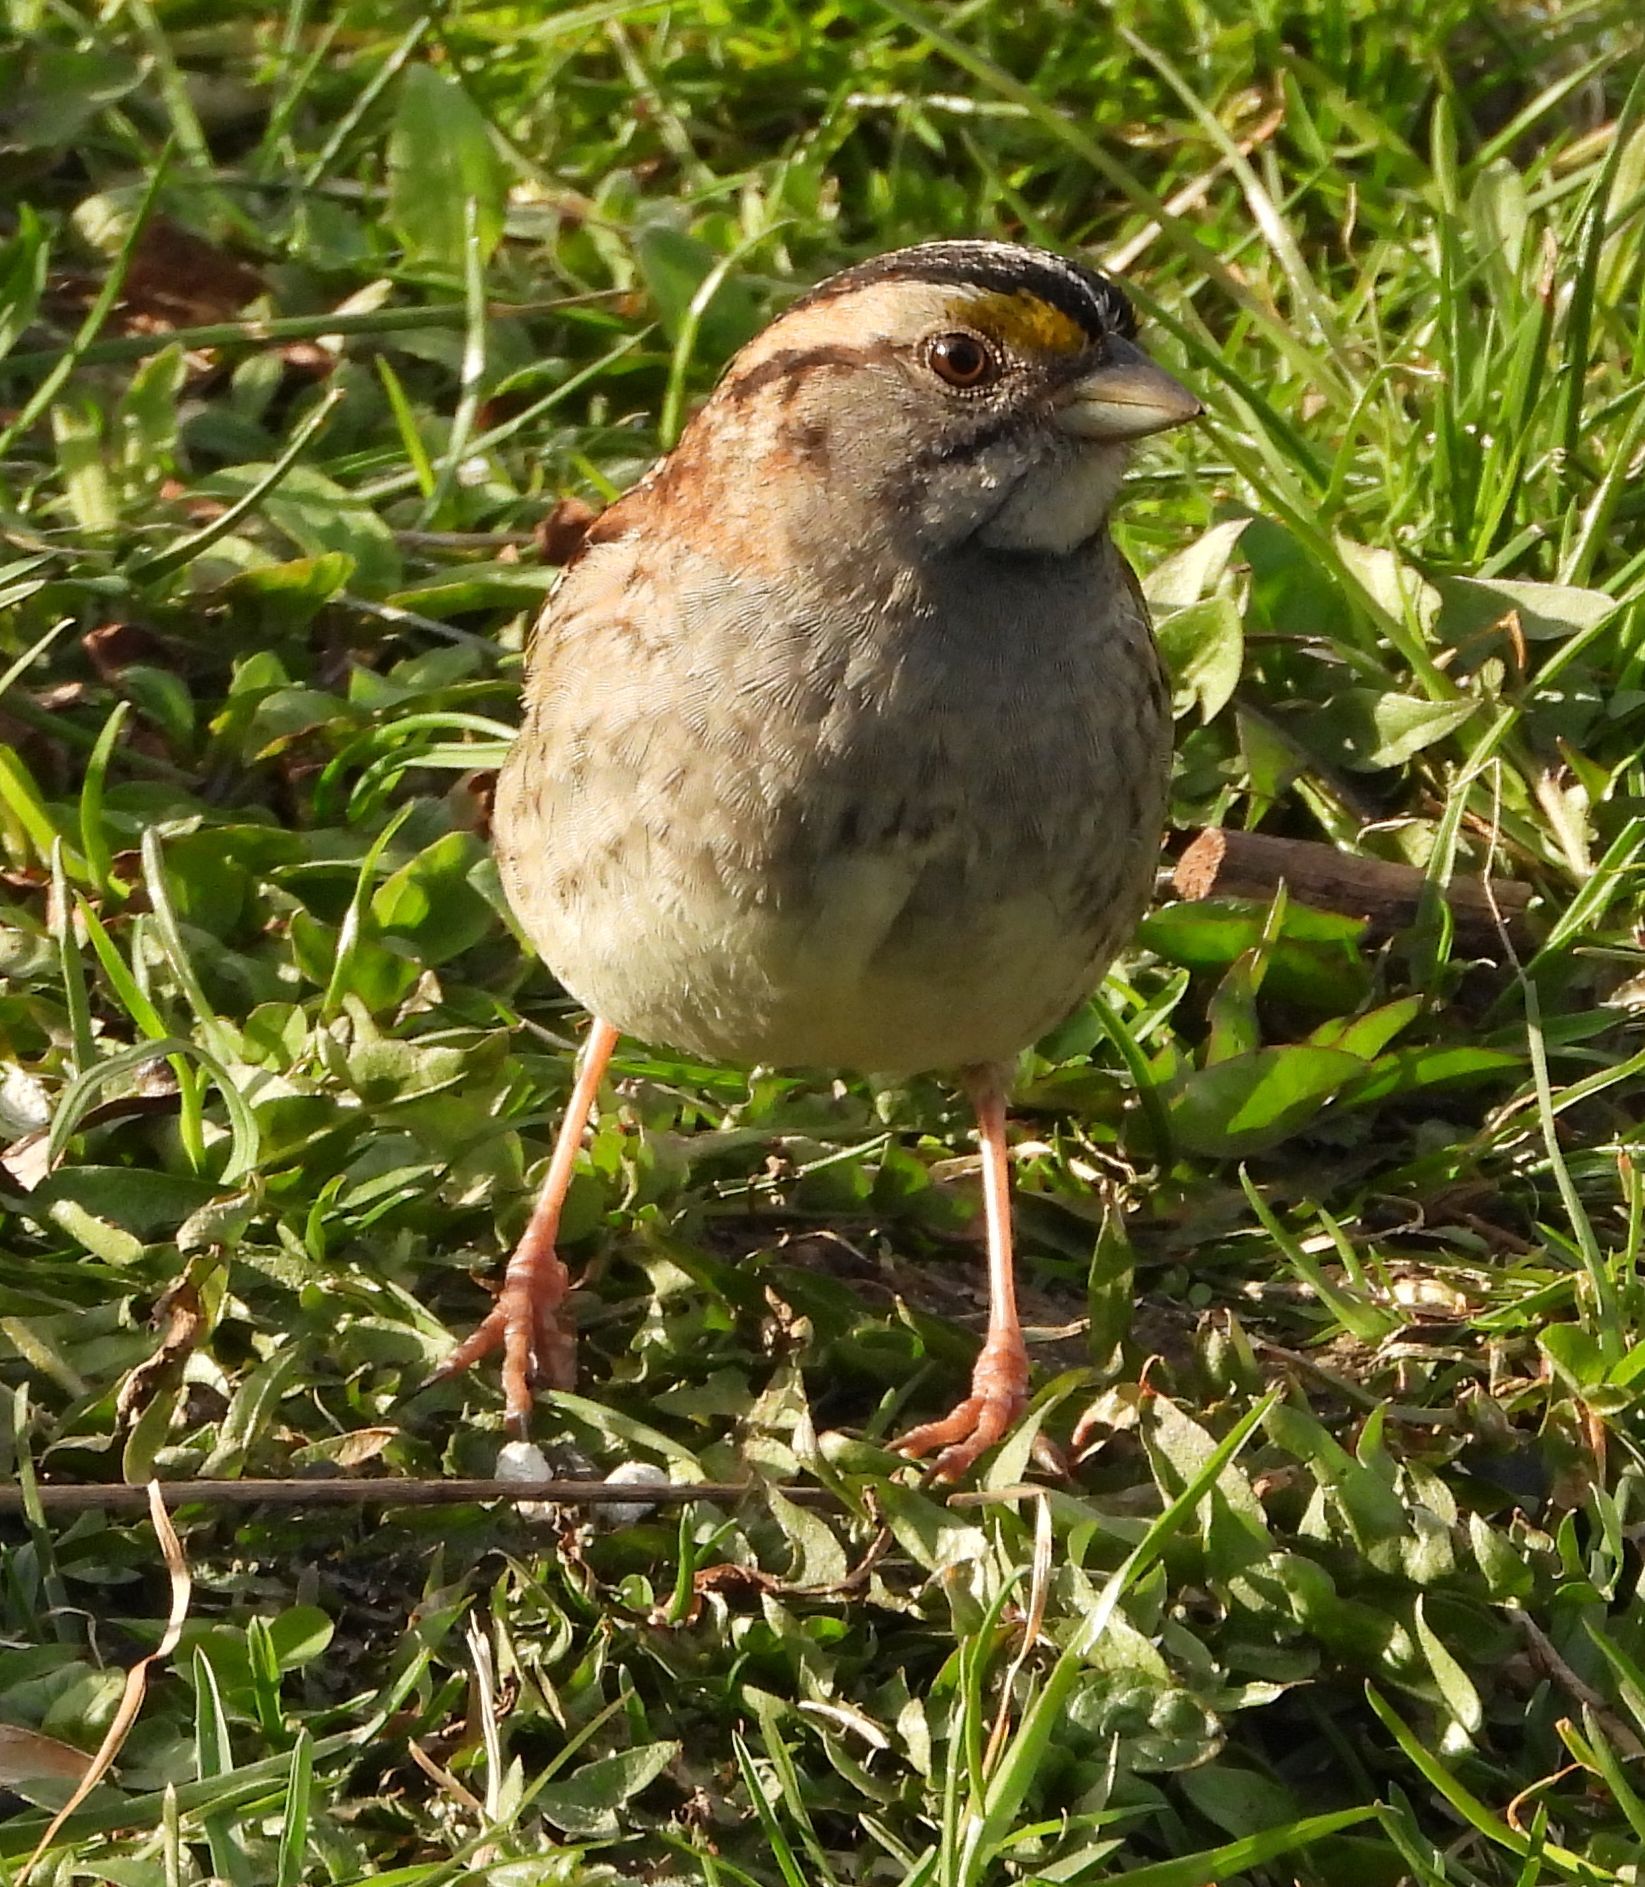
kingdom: Animalia
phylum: Chordata
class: Aves
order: Passeriformes
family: Passerellidae
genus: Zonotrichia
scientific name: Zonotrichia albicollis
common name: White-throated sparrow
